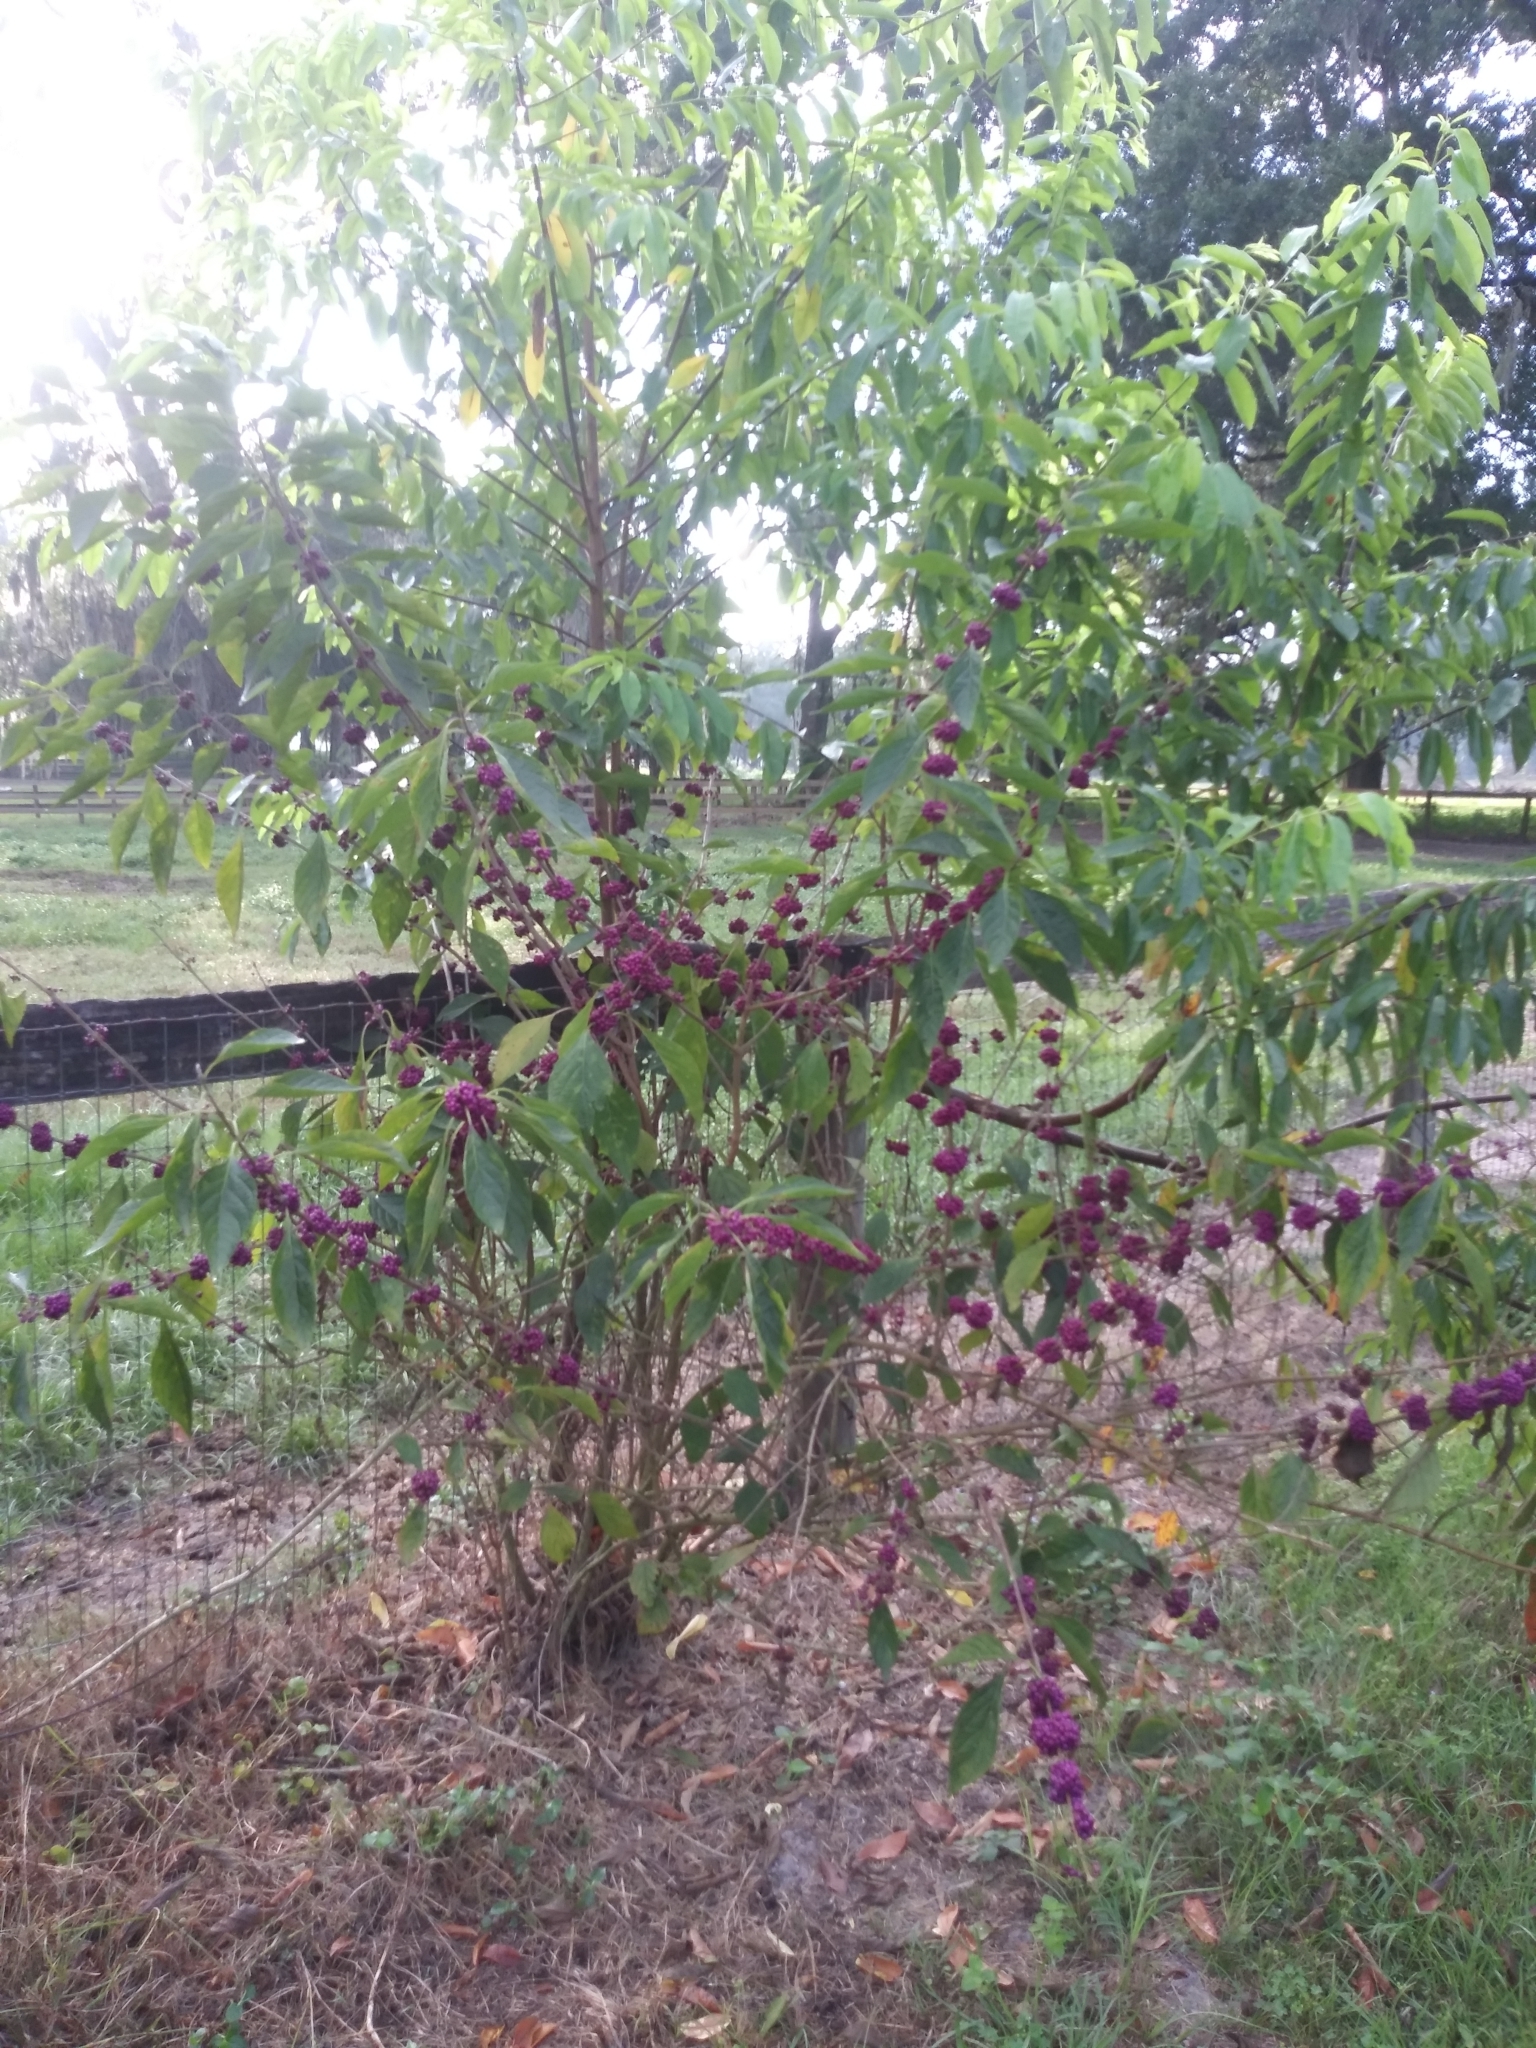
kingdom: Plantae
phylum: Tracheophyta
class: Magnoliopsida
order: Lamiales
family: Lamiaceae
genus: Callicarpa
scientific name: Callicarpa americana
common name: American beautyberry
